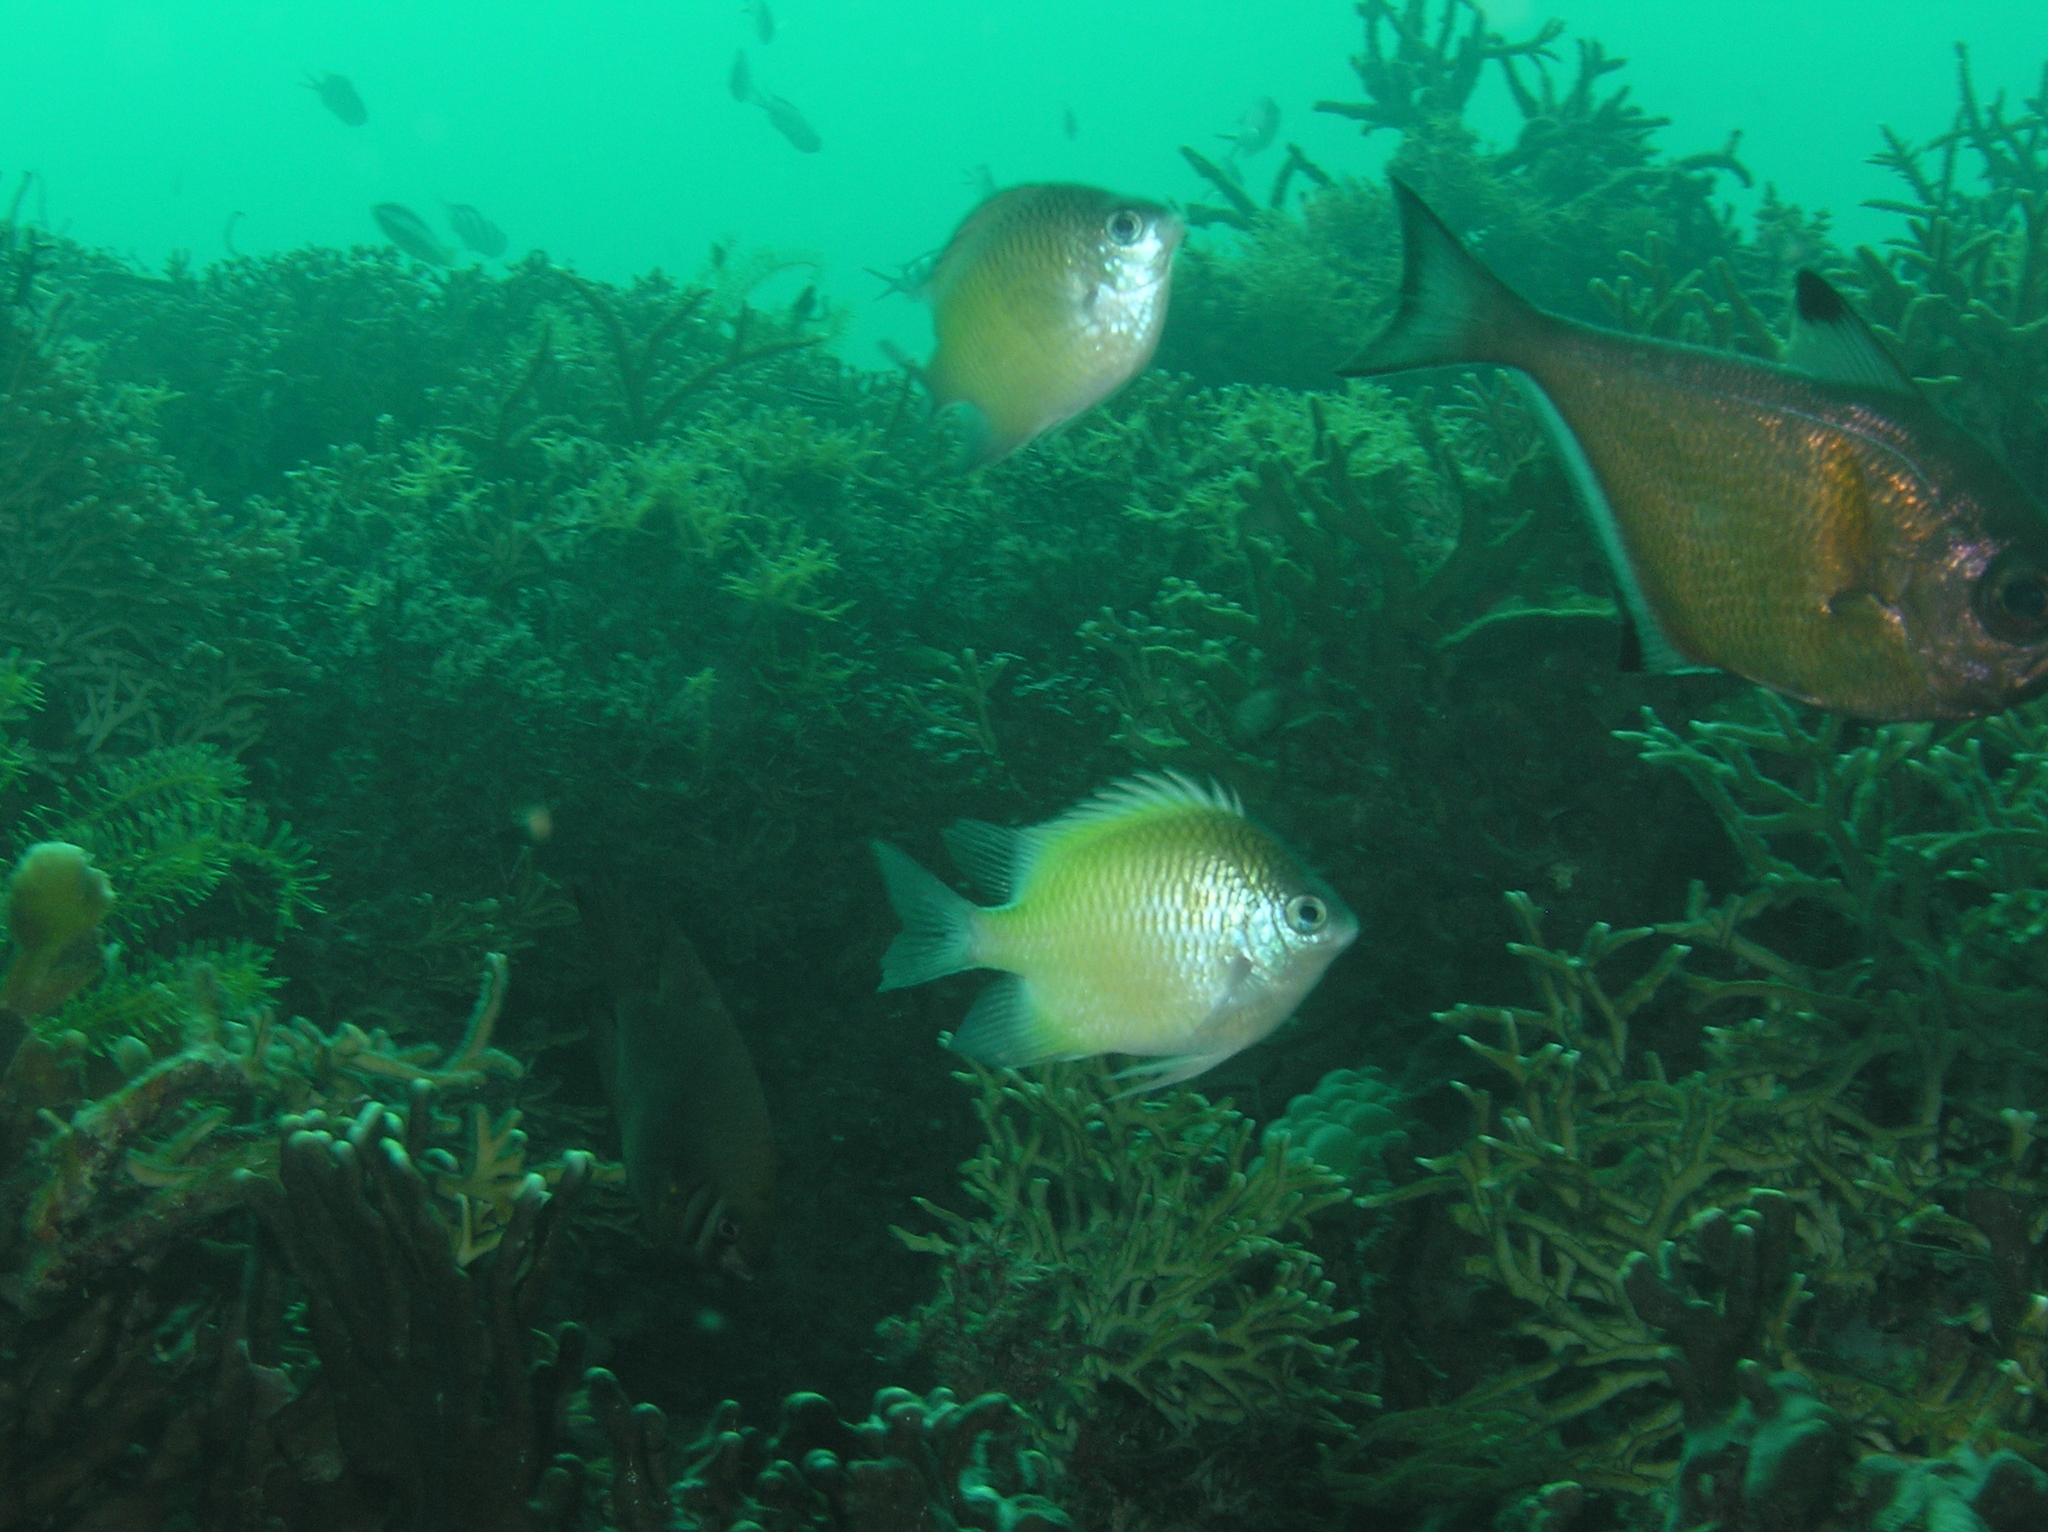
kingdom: Animalia
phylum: Chordata
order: Perciformes
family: Pempheridae
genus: Pempheris
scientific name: Pempheris vanicolensis
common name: Vanikoro sweeper
